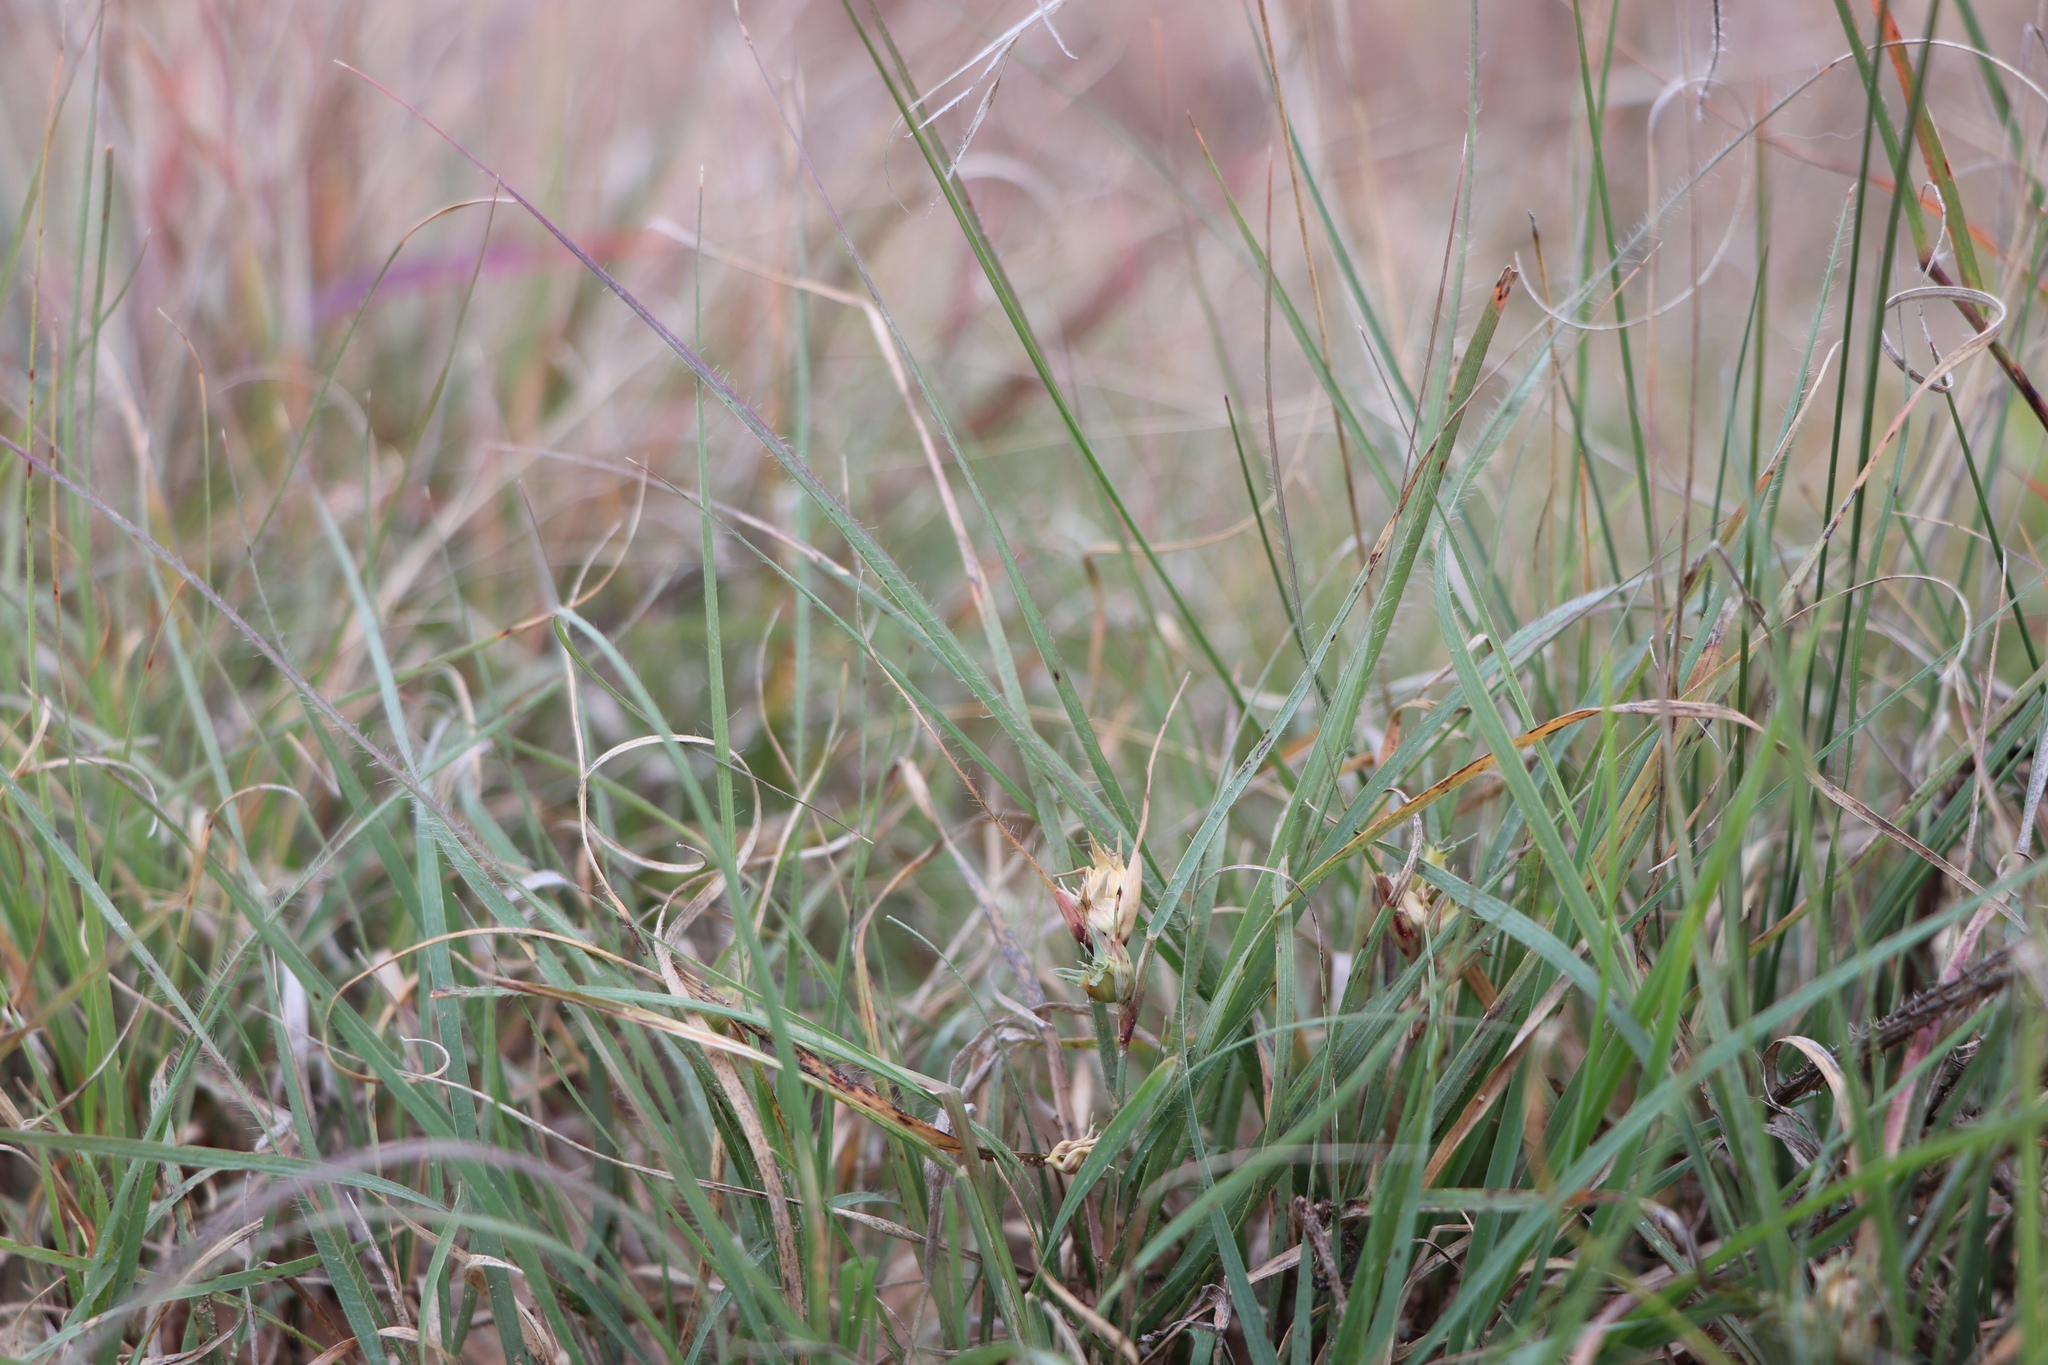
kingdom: Plantae
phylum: Tracheophyta
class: Liliopsida
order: Poales
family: Poaceae
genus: Bouteloua
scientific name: Bouteloua dactyloides
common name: Buffalo grass
